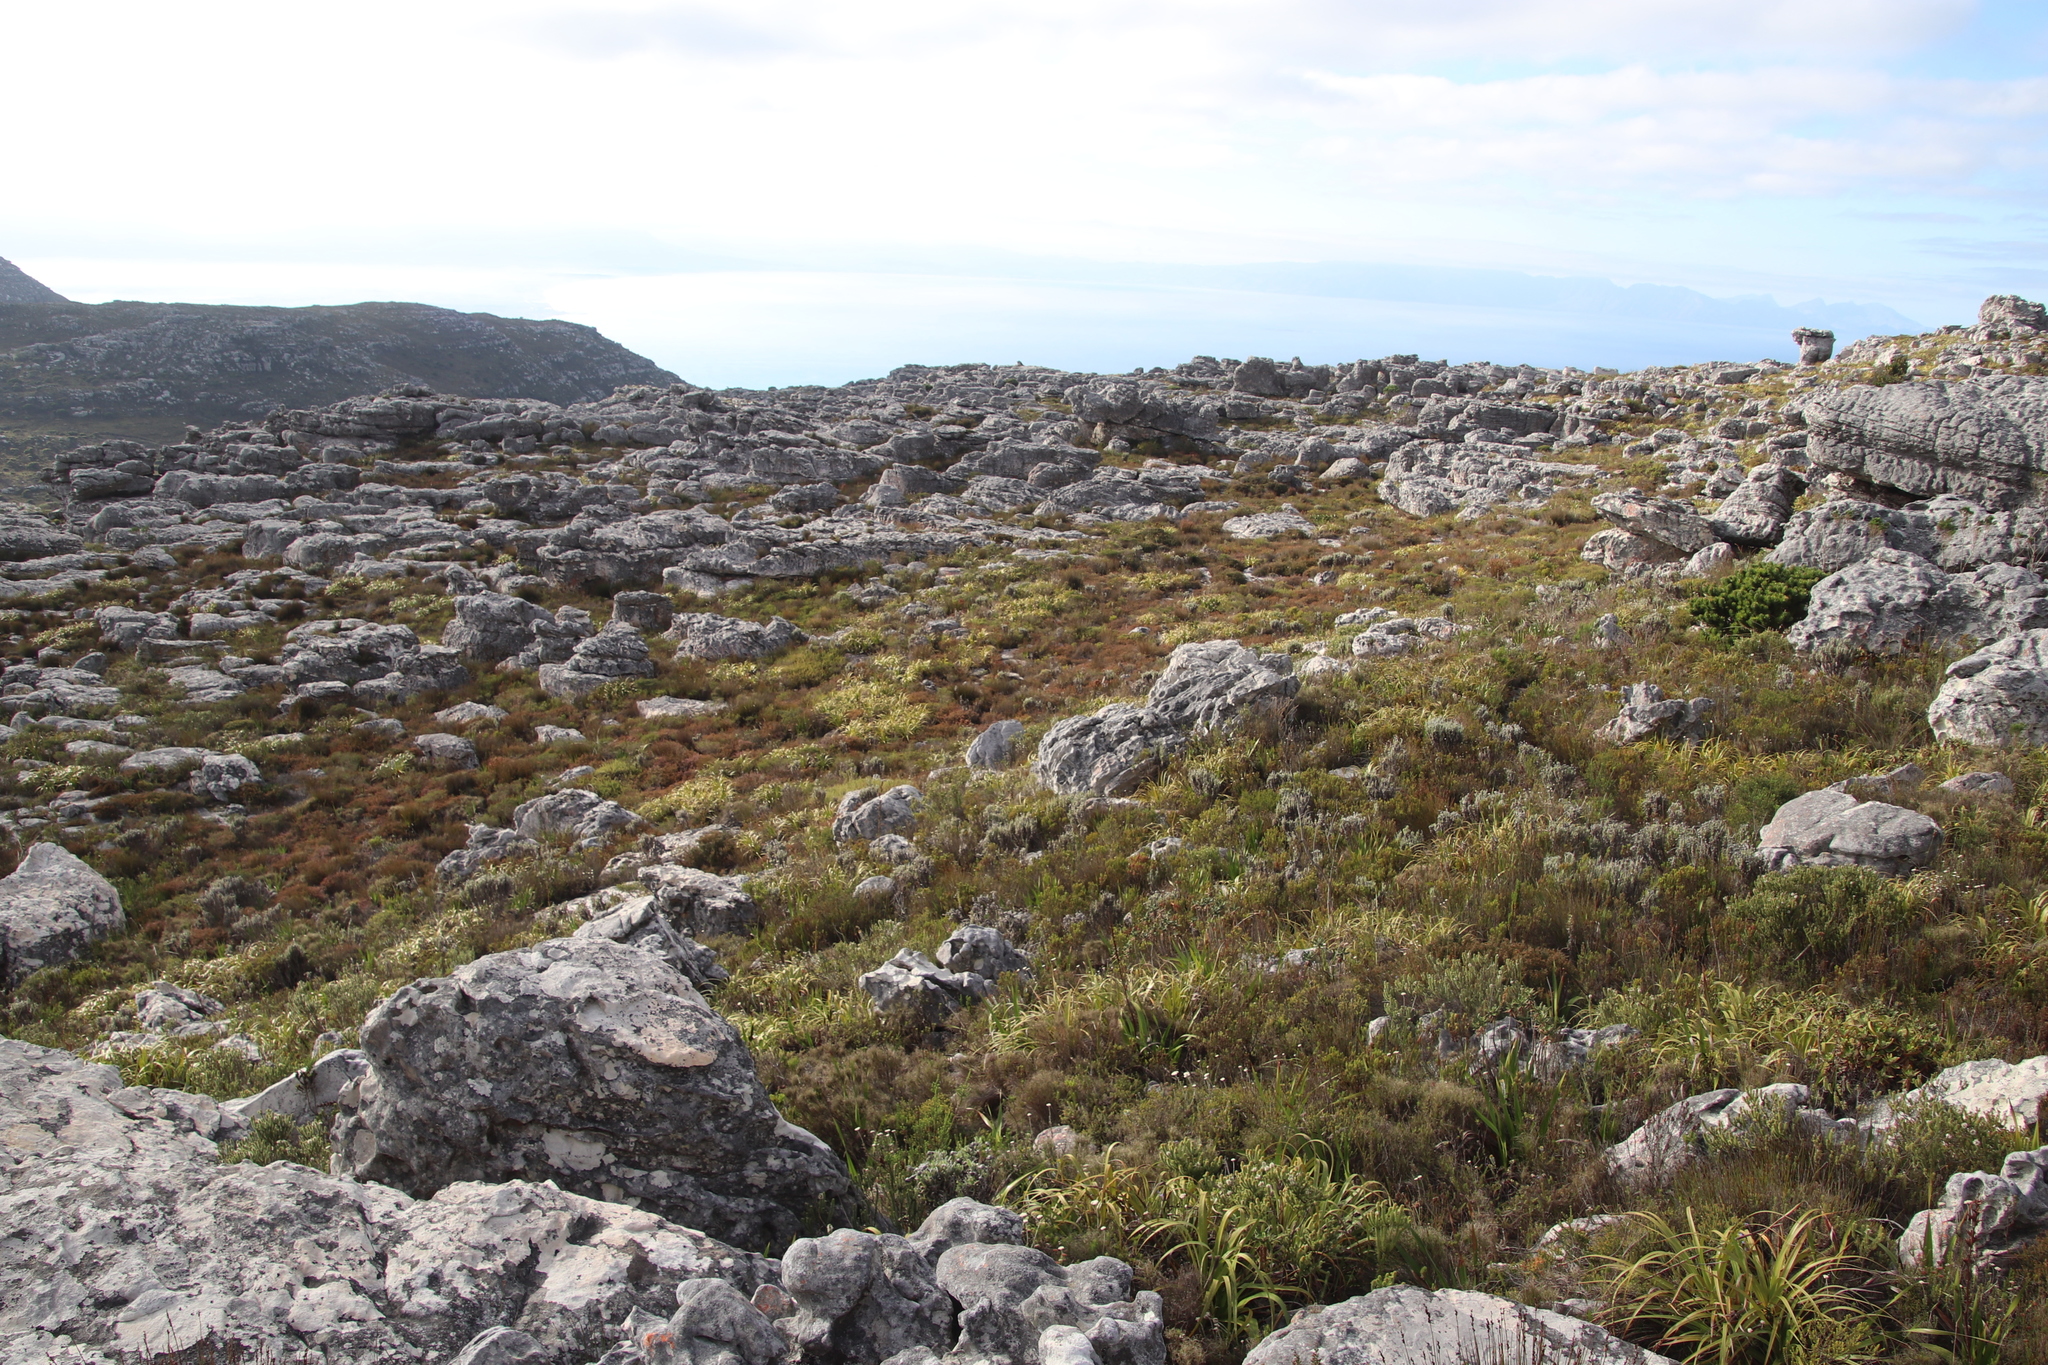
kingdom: Plantae
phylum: Tracheophyta
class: Liliopsida
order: Poales
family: Cyperaceae
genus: Tetraria
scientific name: Tetraria thermalis
